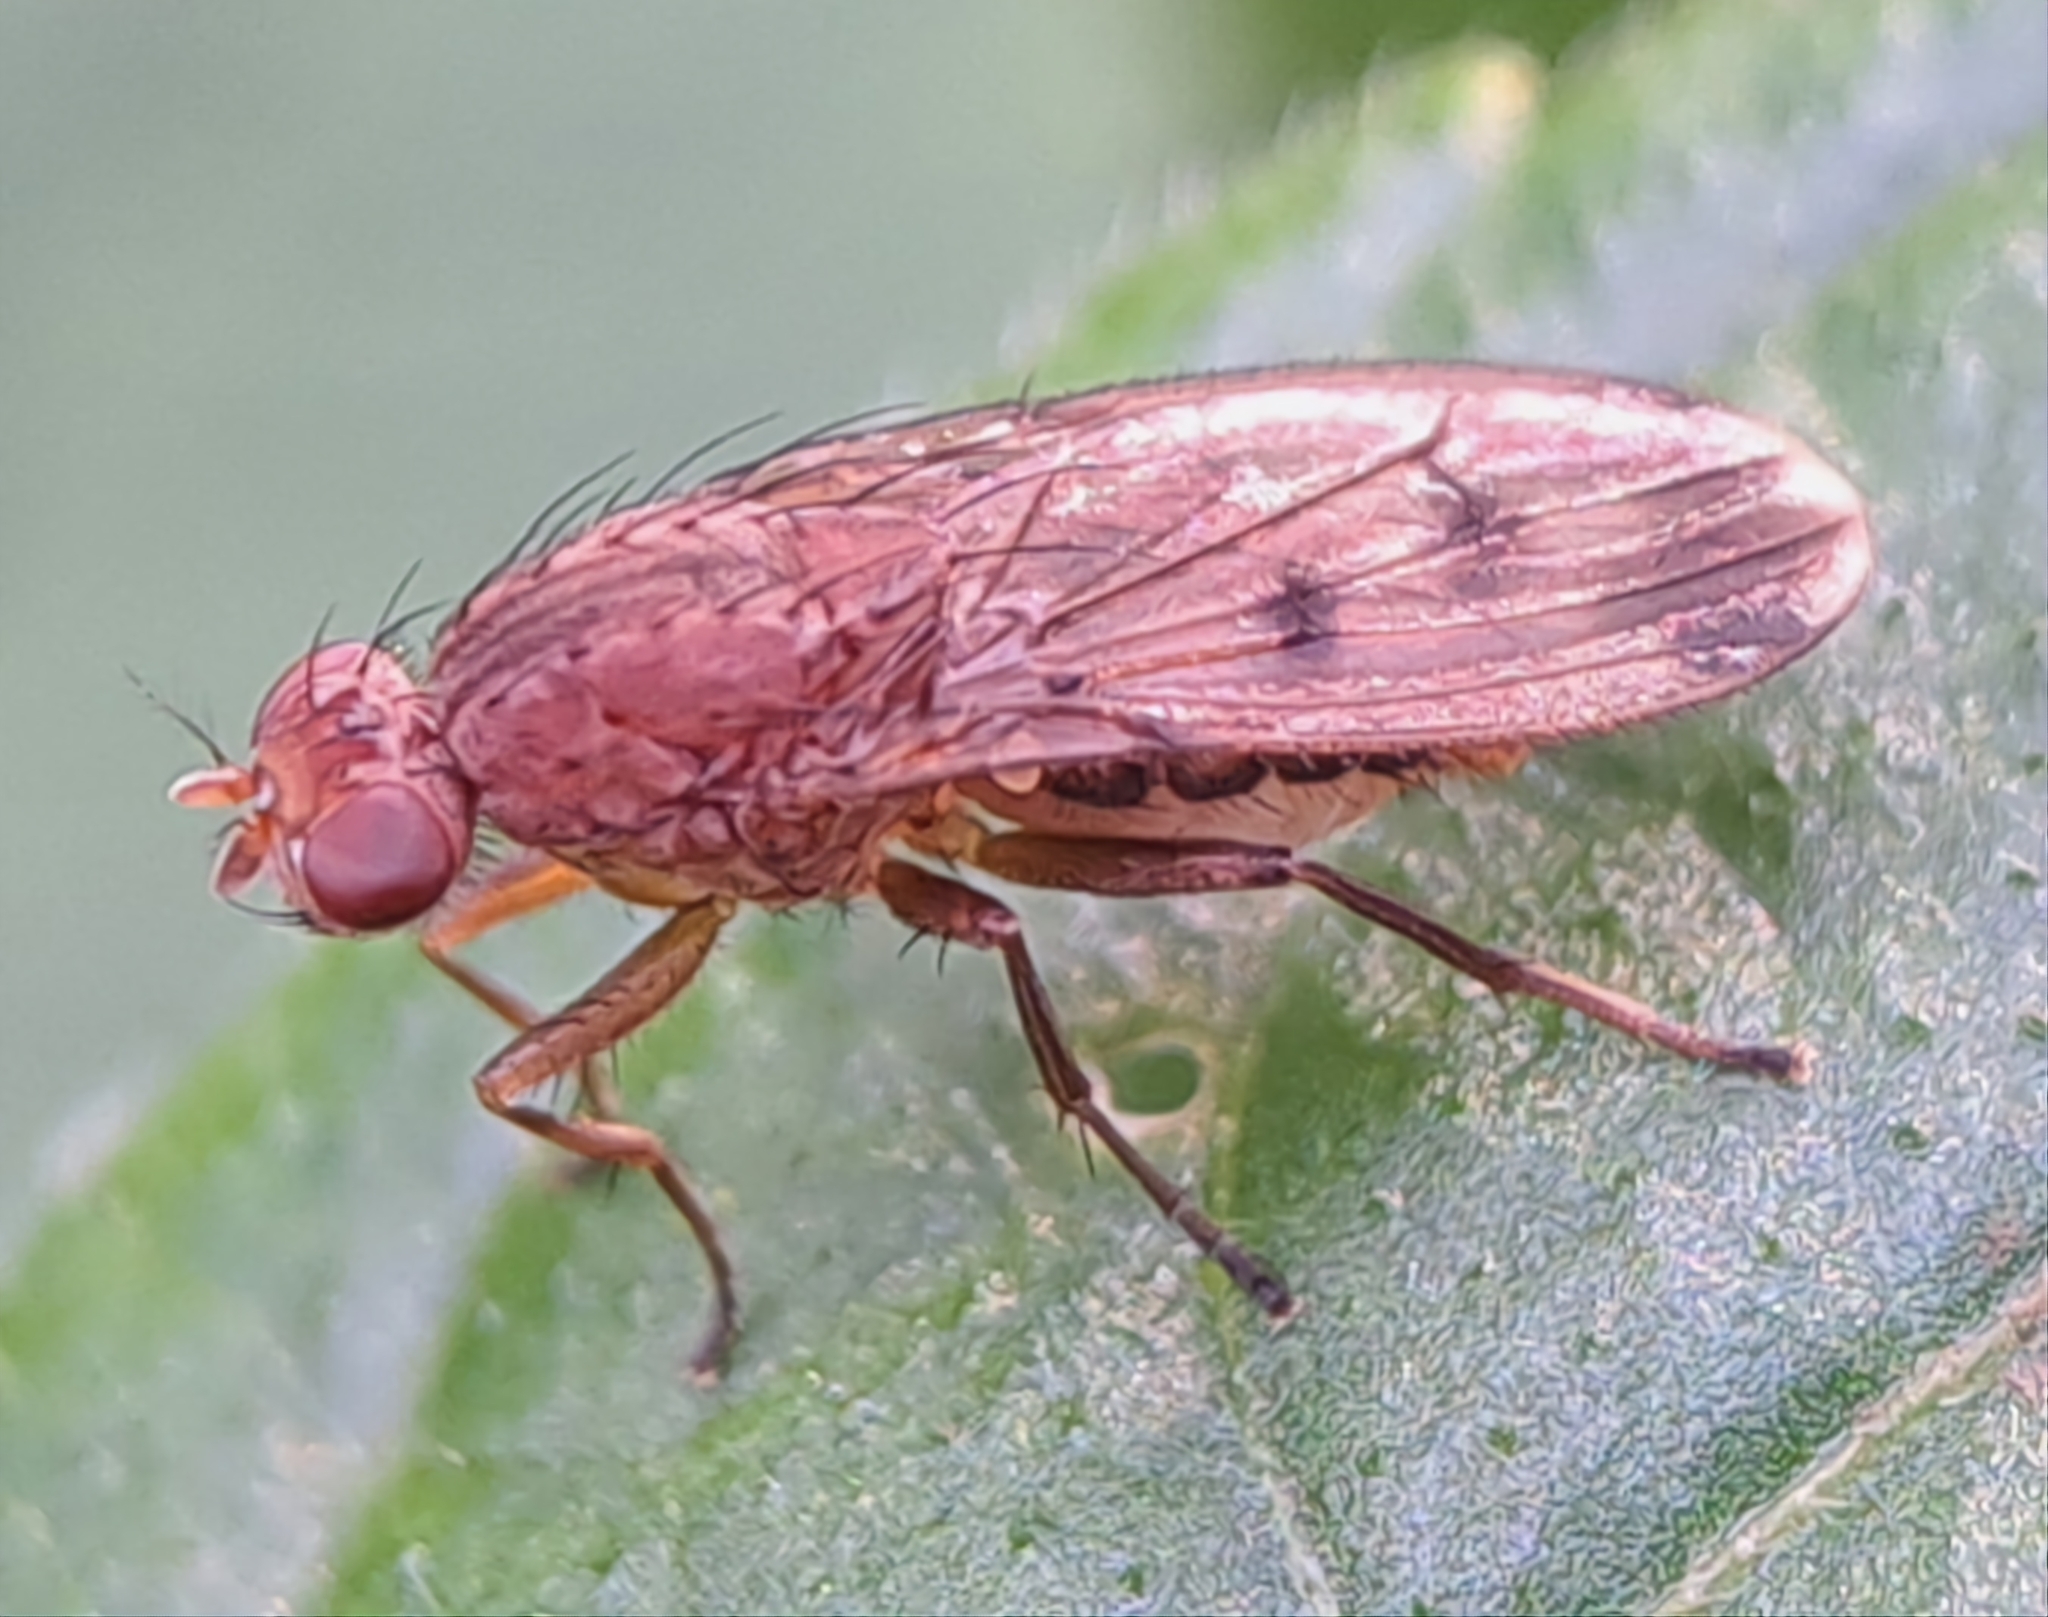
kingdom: Animalia
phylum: Arthropoda
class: Insecta
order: Diptera
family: Heleomyzidae
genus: Suillia
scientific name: Suillia variegata
